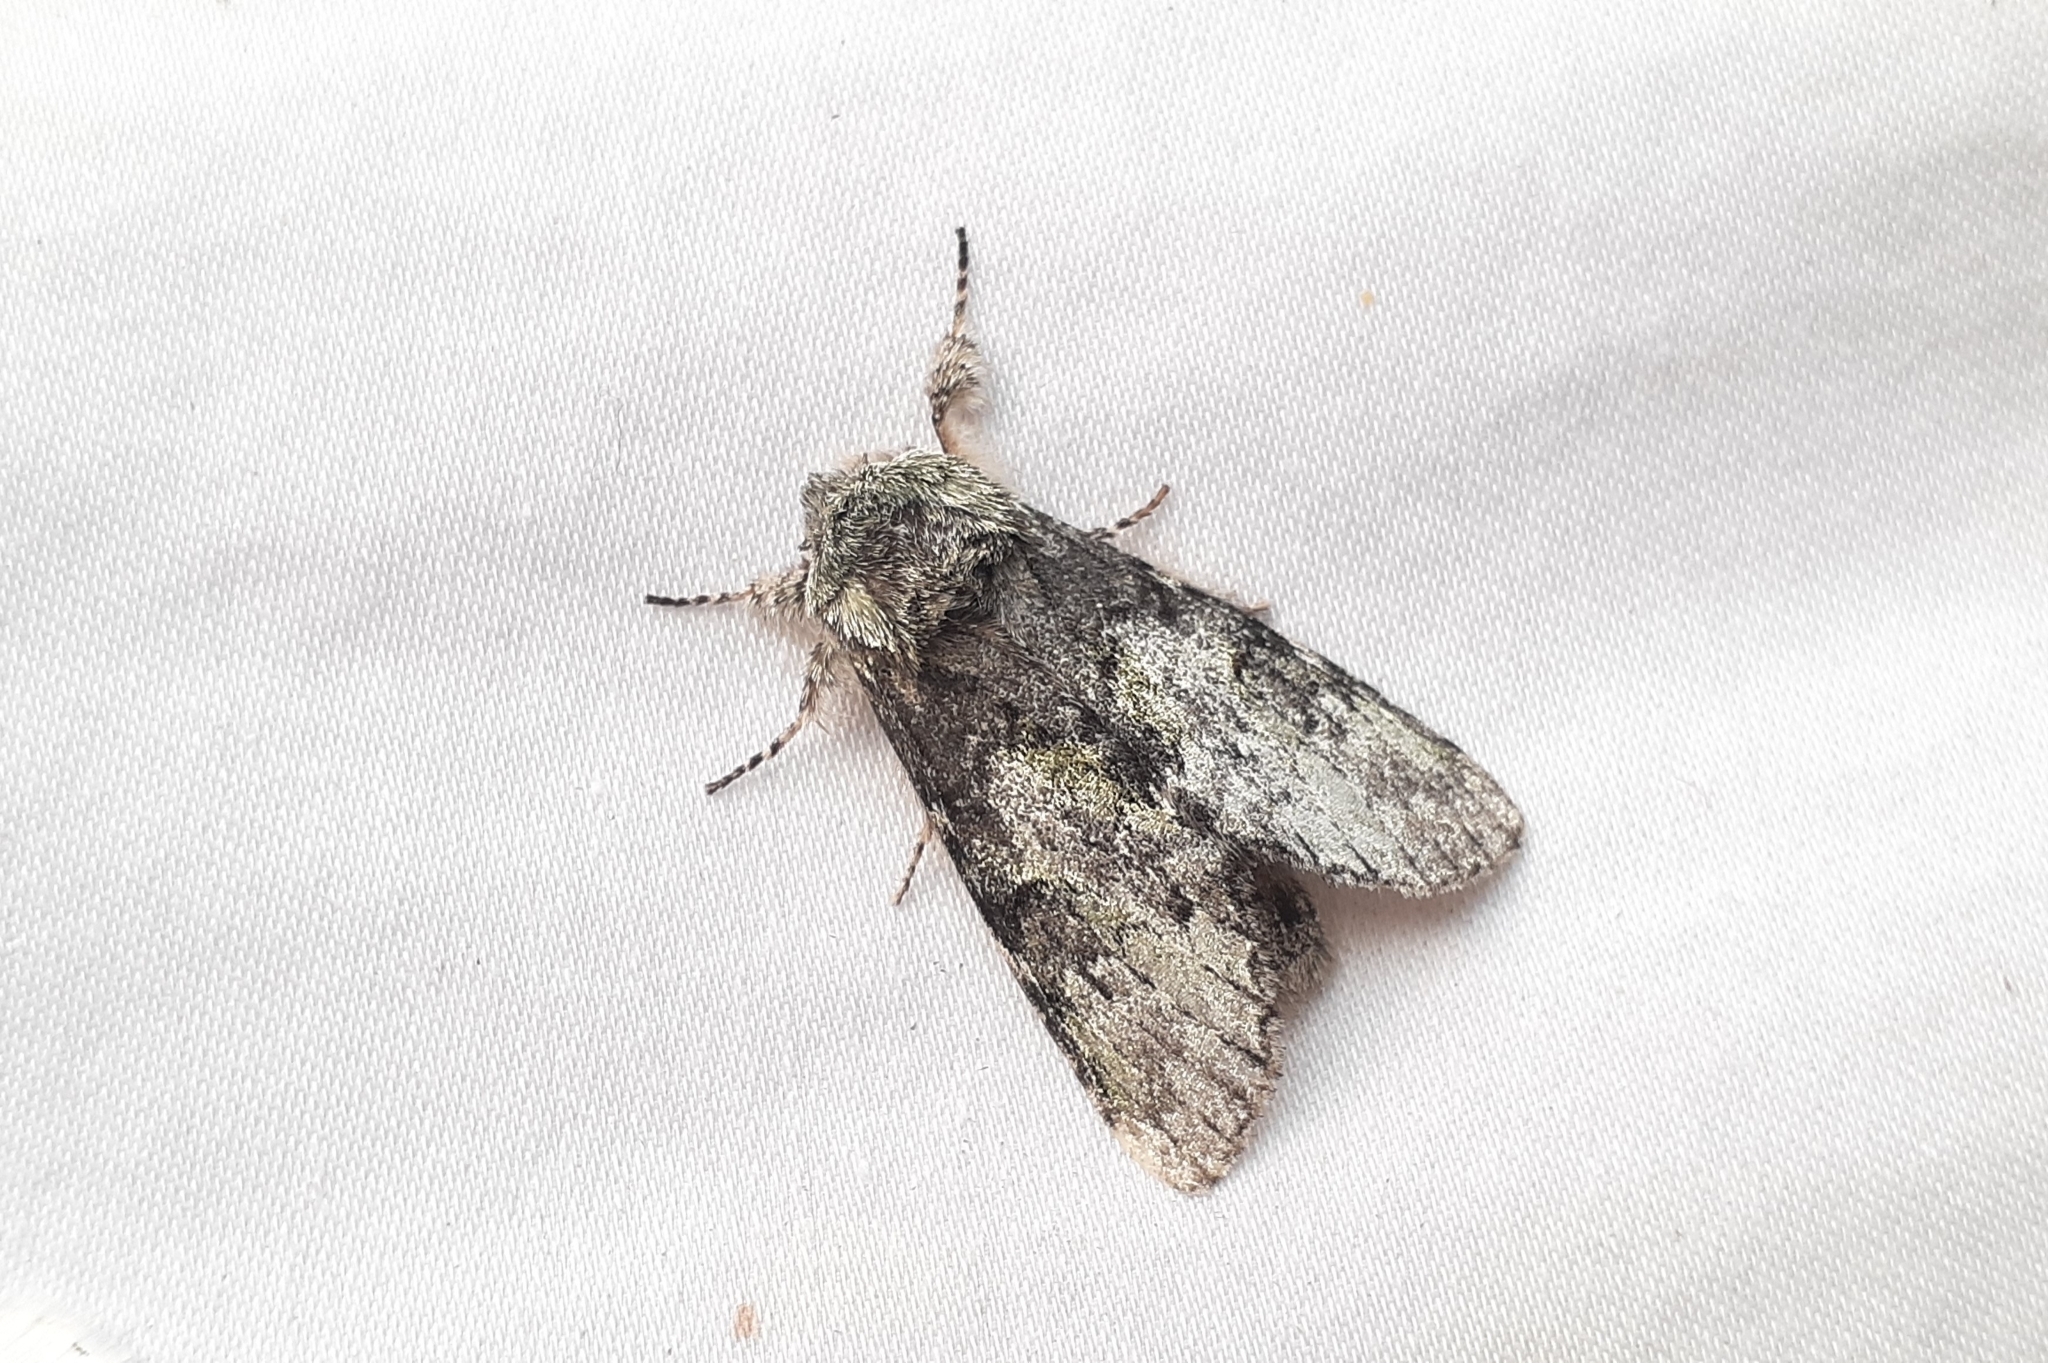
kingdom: Animalia
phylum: Arthropoda
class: Insecta
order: Lepidoptera
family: Notodontidae
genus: Macrurocampa
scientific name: Macrurocampa marthesia
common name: Mottled prominent
